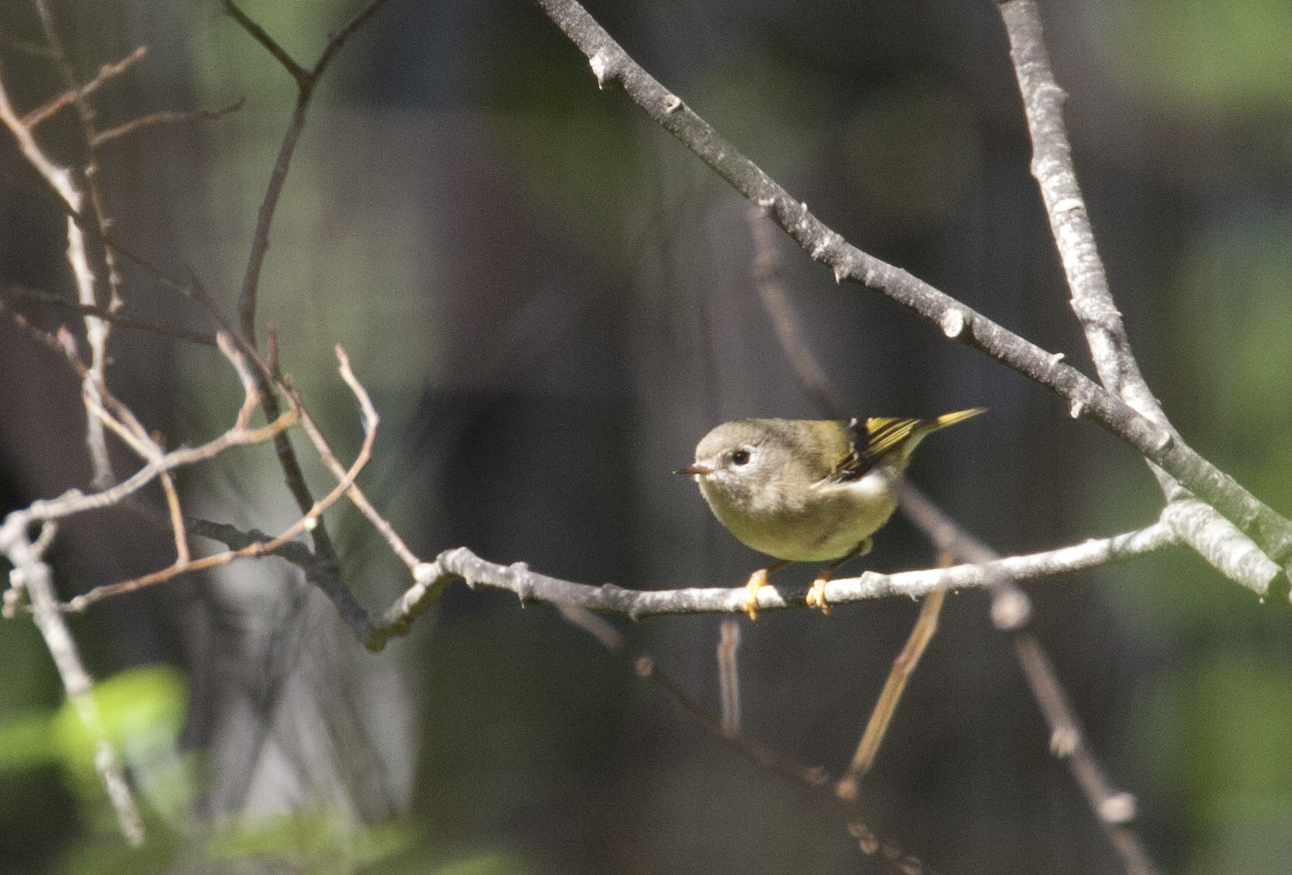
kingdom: Animalia
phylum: Chordata
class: Aves
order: Passeriformes
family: Regulidae
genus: Regulus
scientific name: Regulus calendula
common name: Ruby-crowned kinglet
